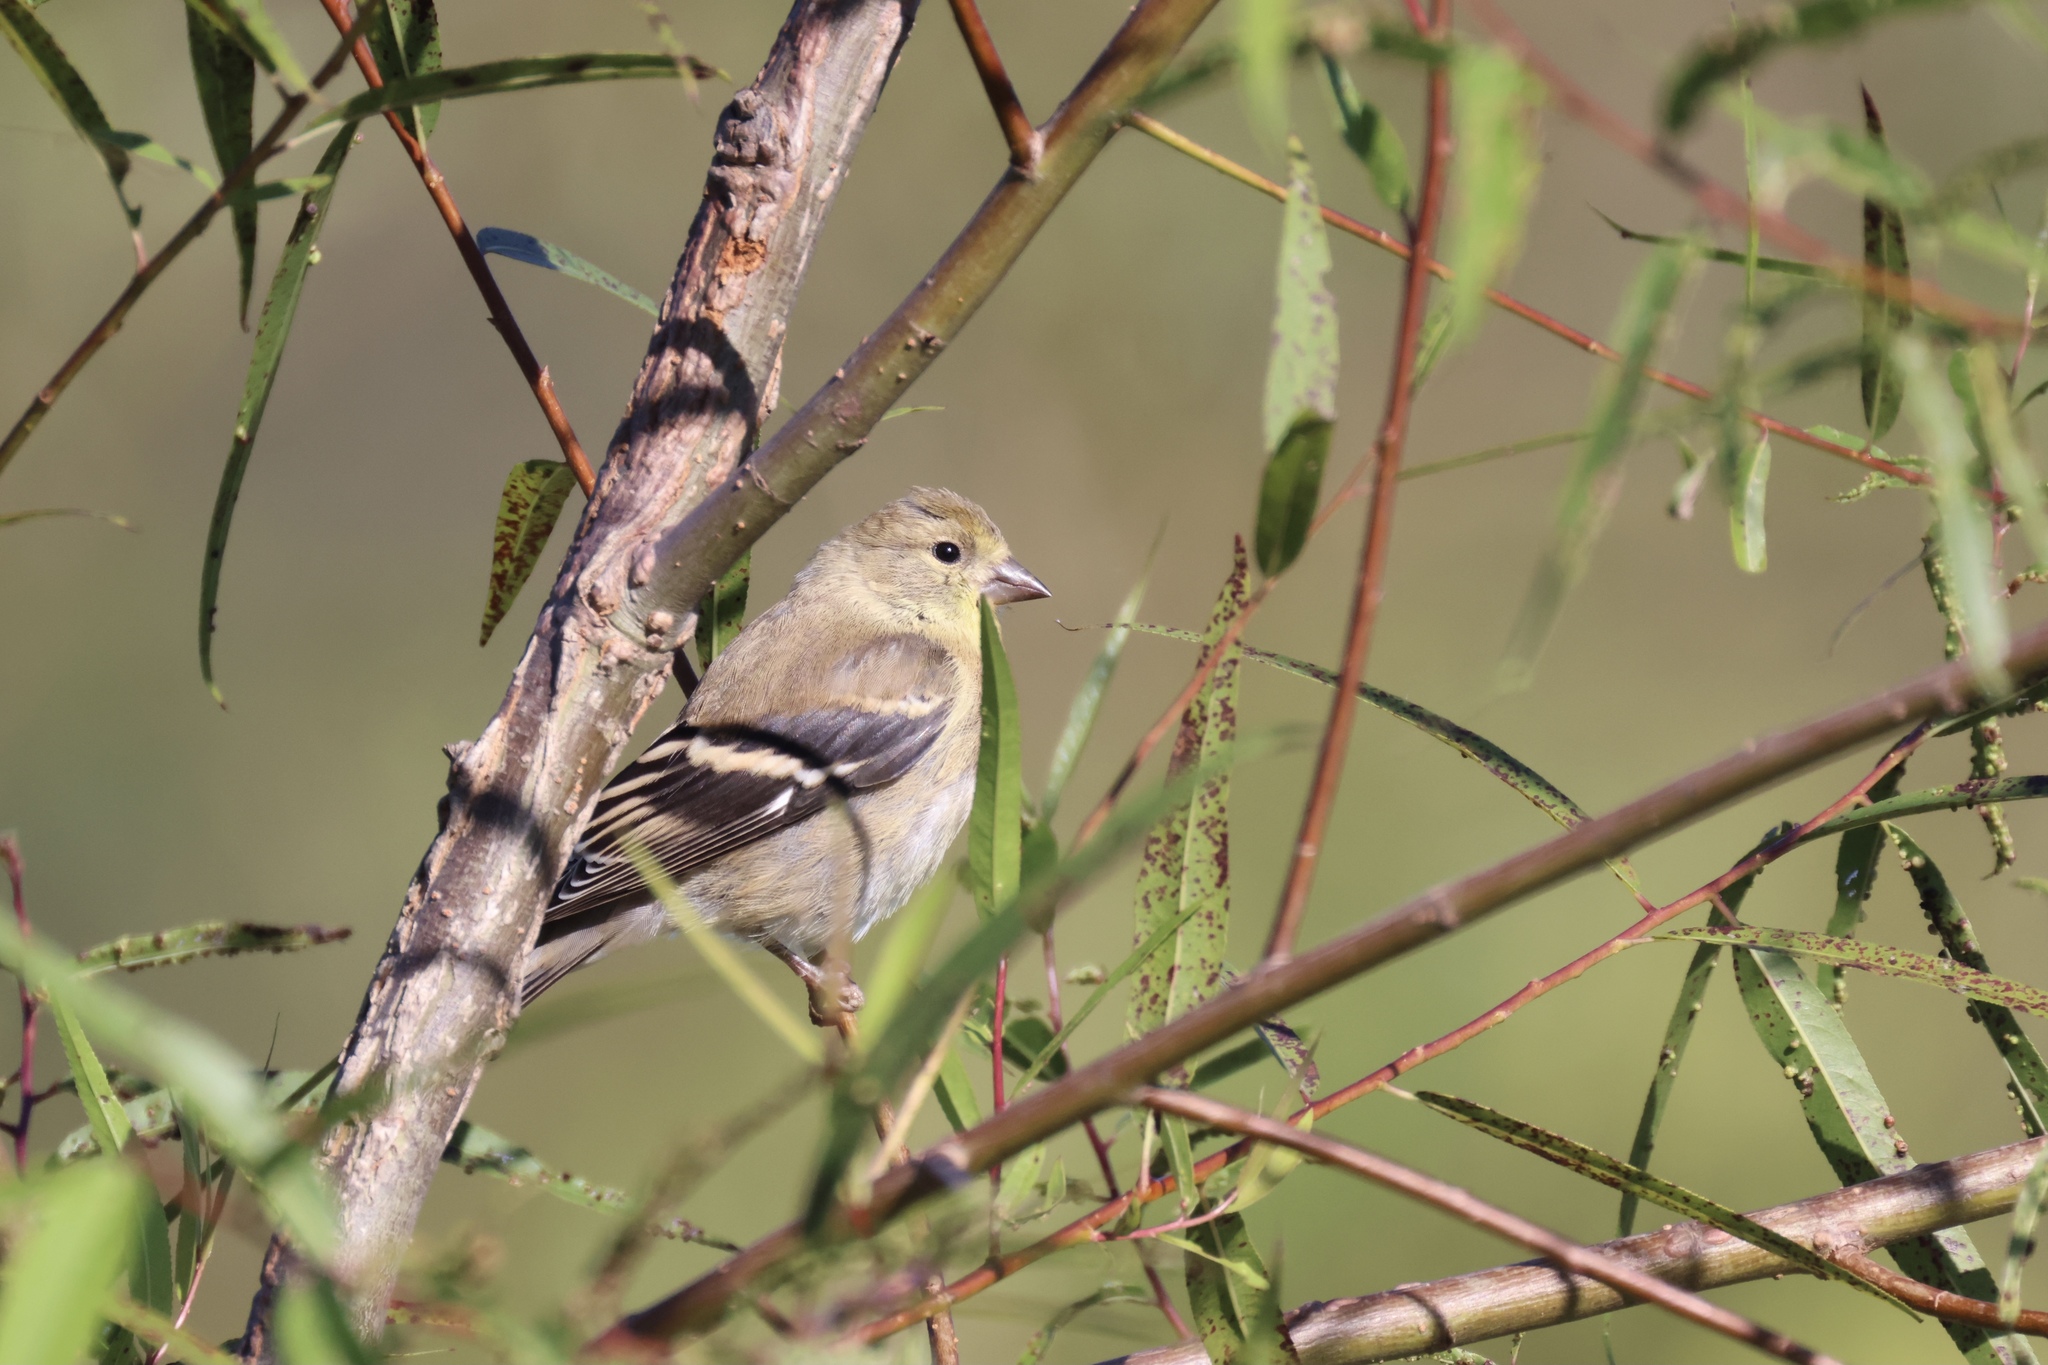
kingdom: Animalia
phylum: Chordata
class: Aves
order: Passeriformes
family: Fringillidae
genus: Spinus
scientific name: Spinus tristis
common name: American goldfinch
